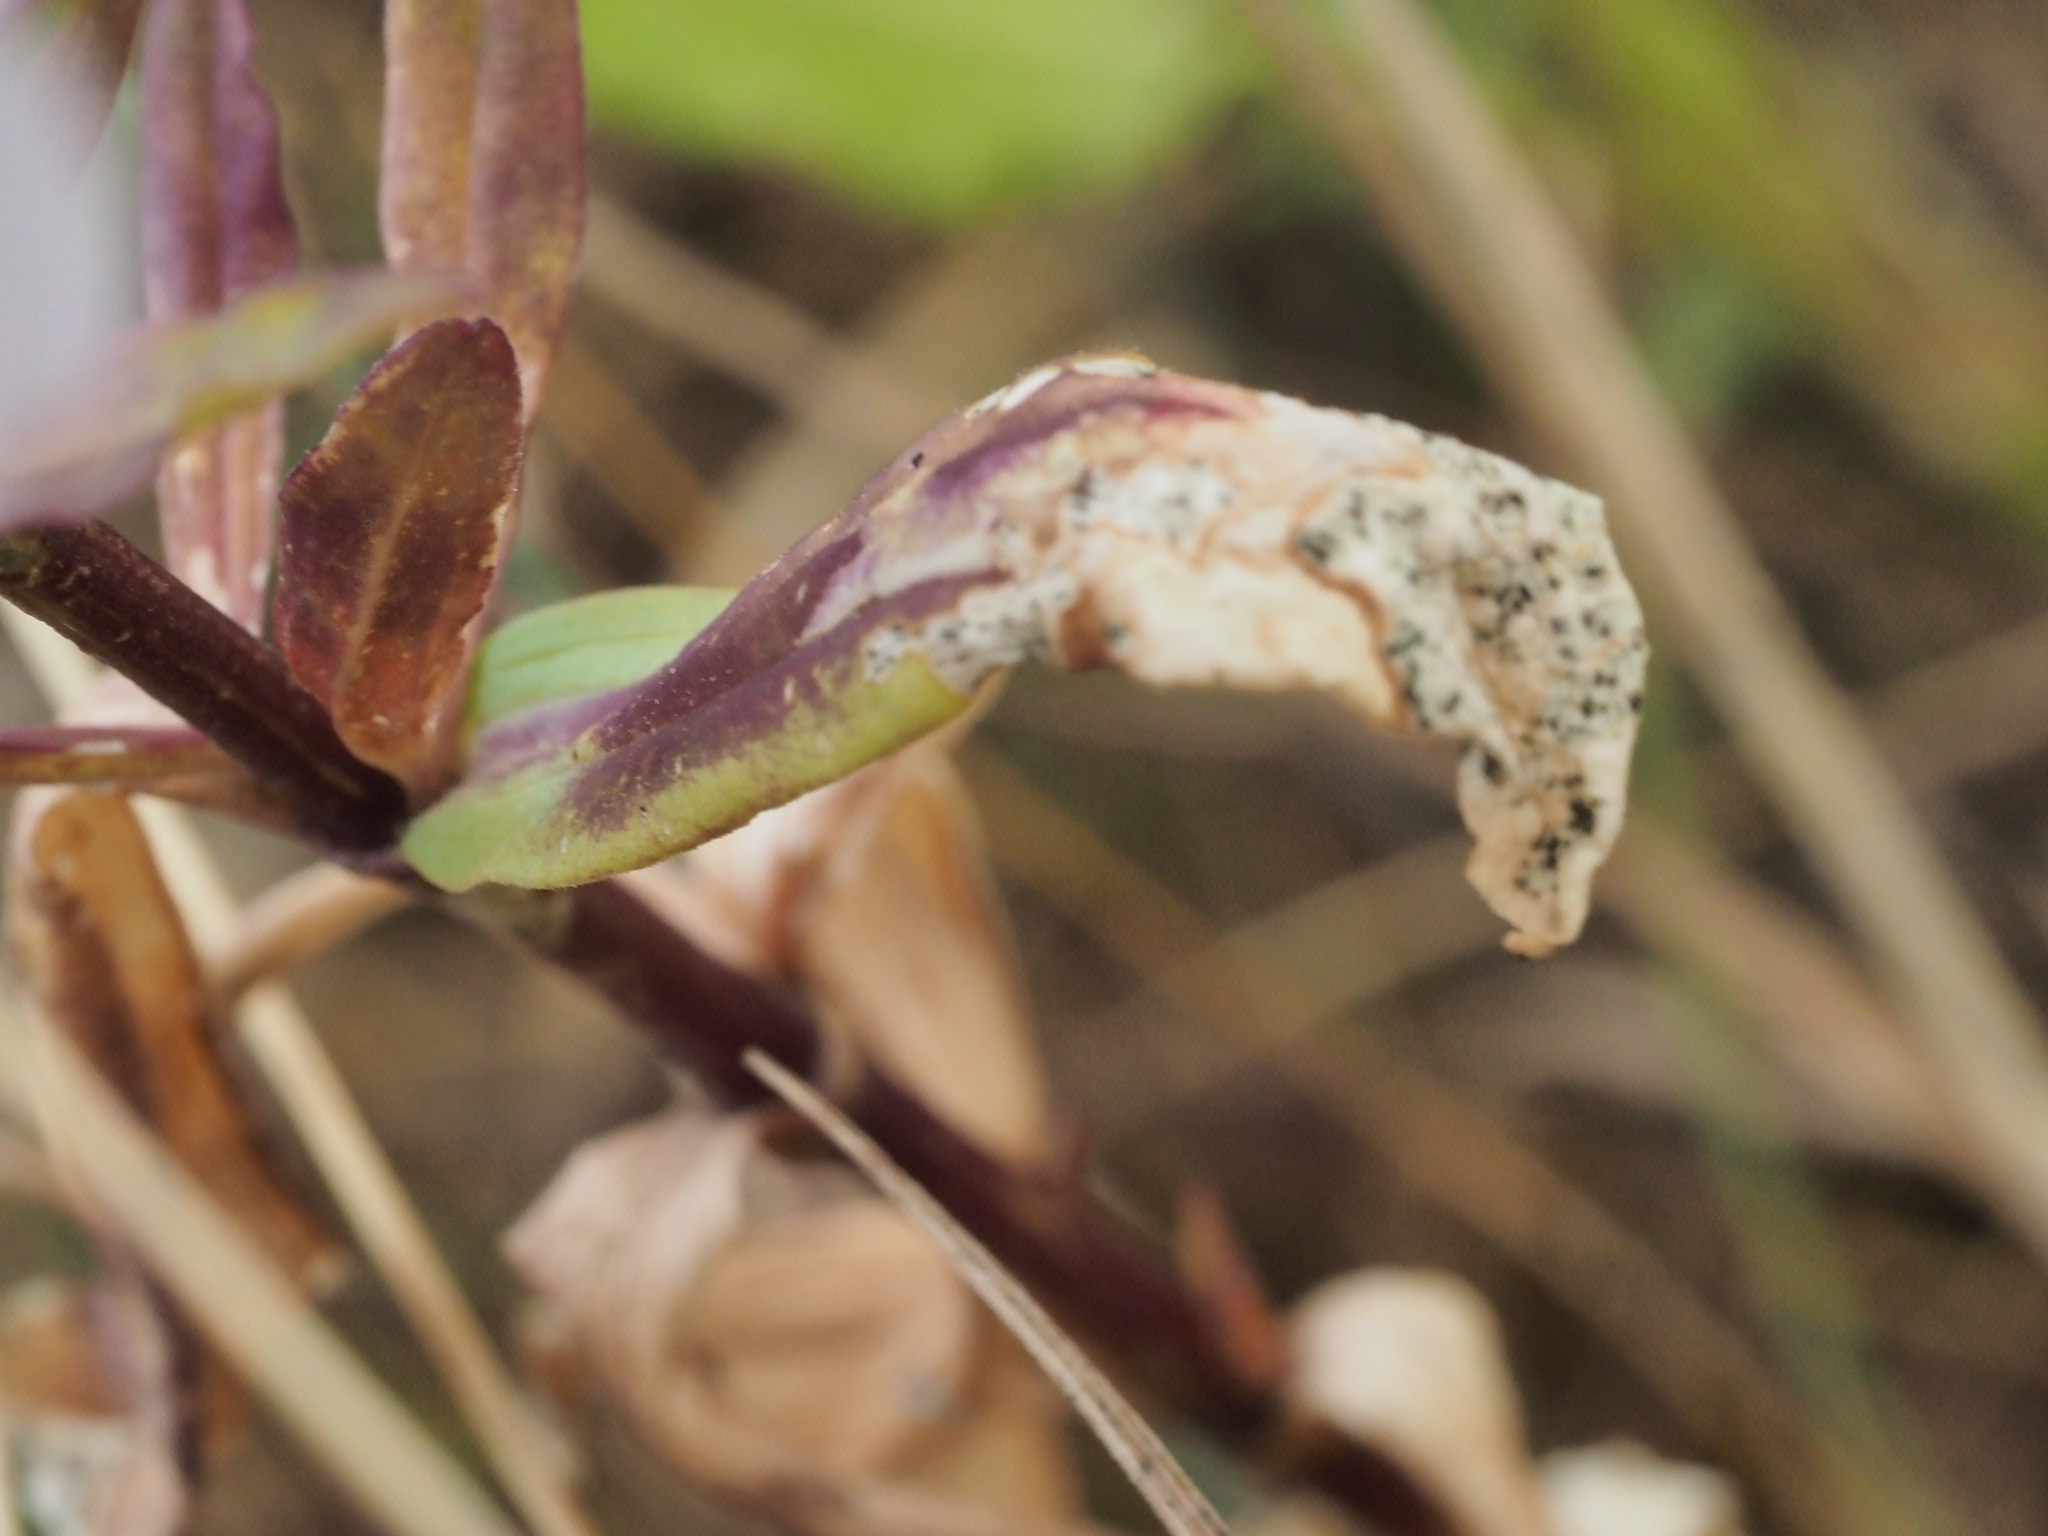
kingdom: Plantae
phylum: Tracheophyta
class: Magnoliopsida
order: Caryophyllales
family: Caryophyllaceae
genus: Saponaria
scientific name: Saponaria officinalis
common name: Soapwort
